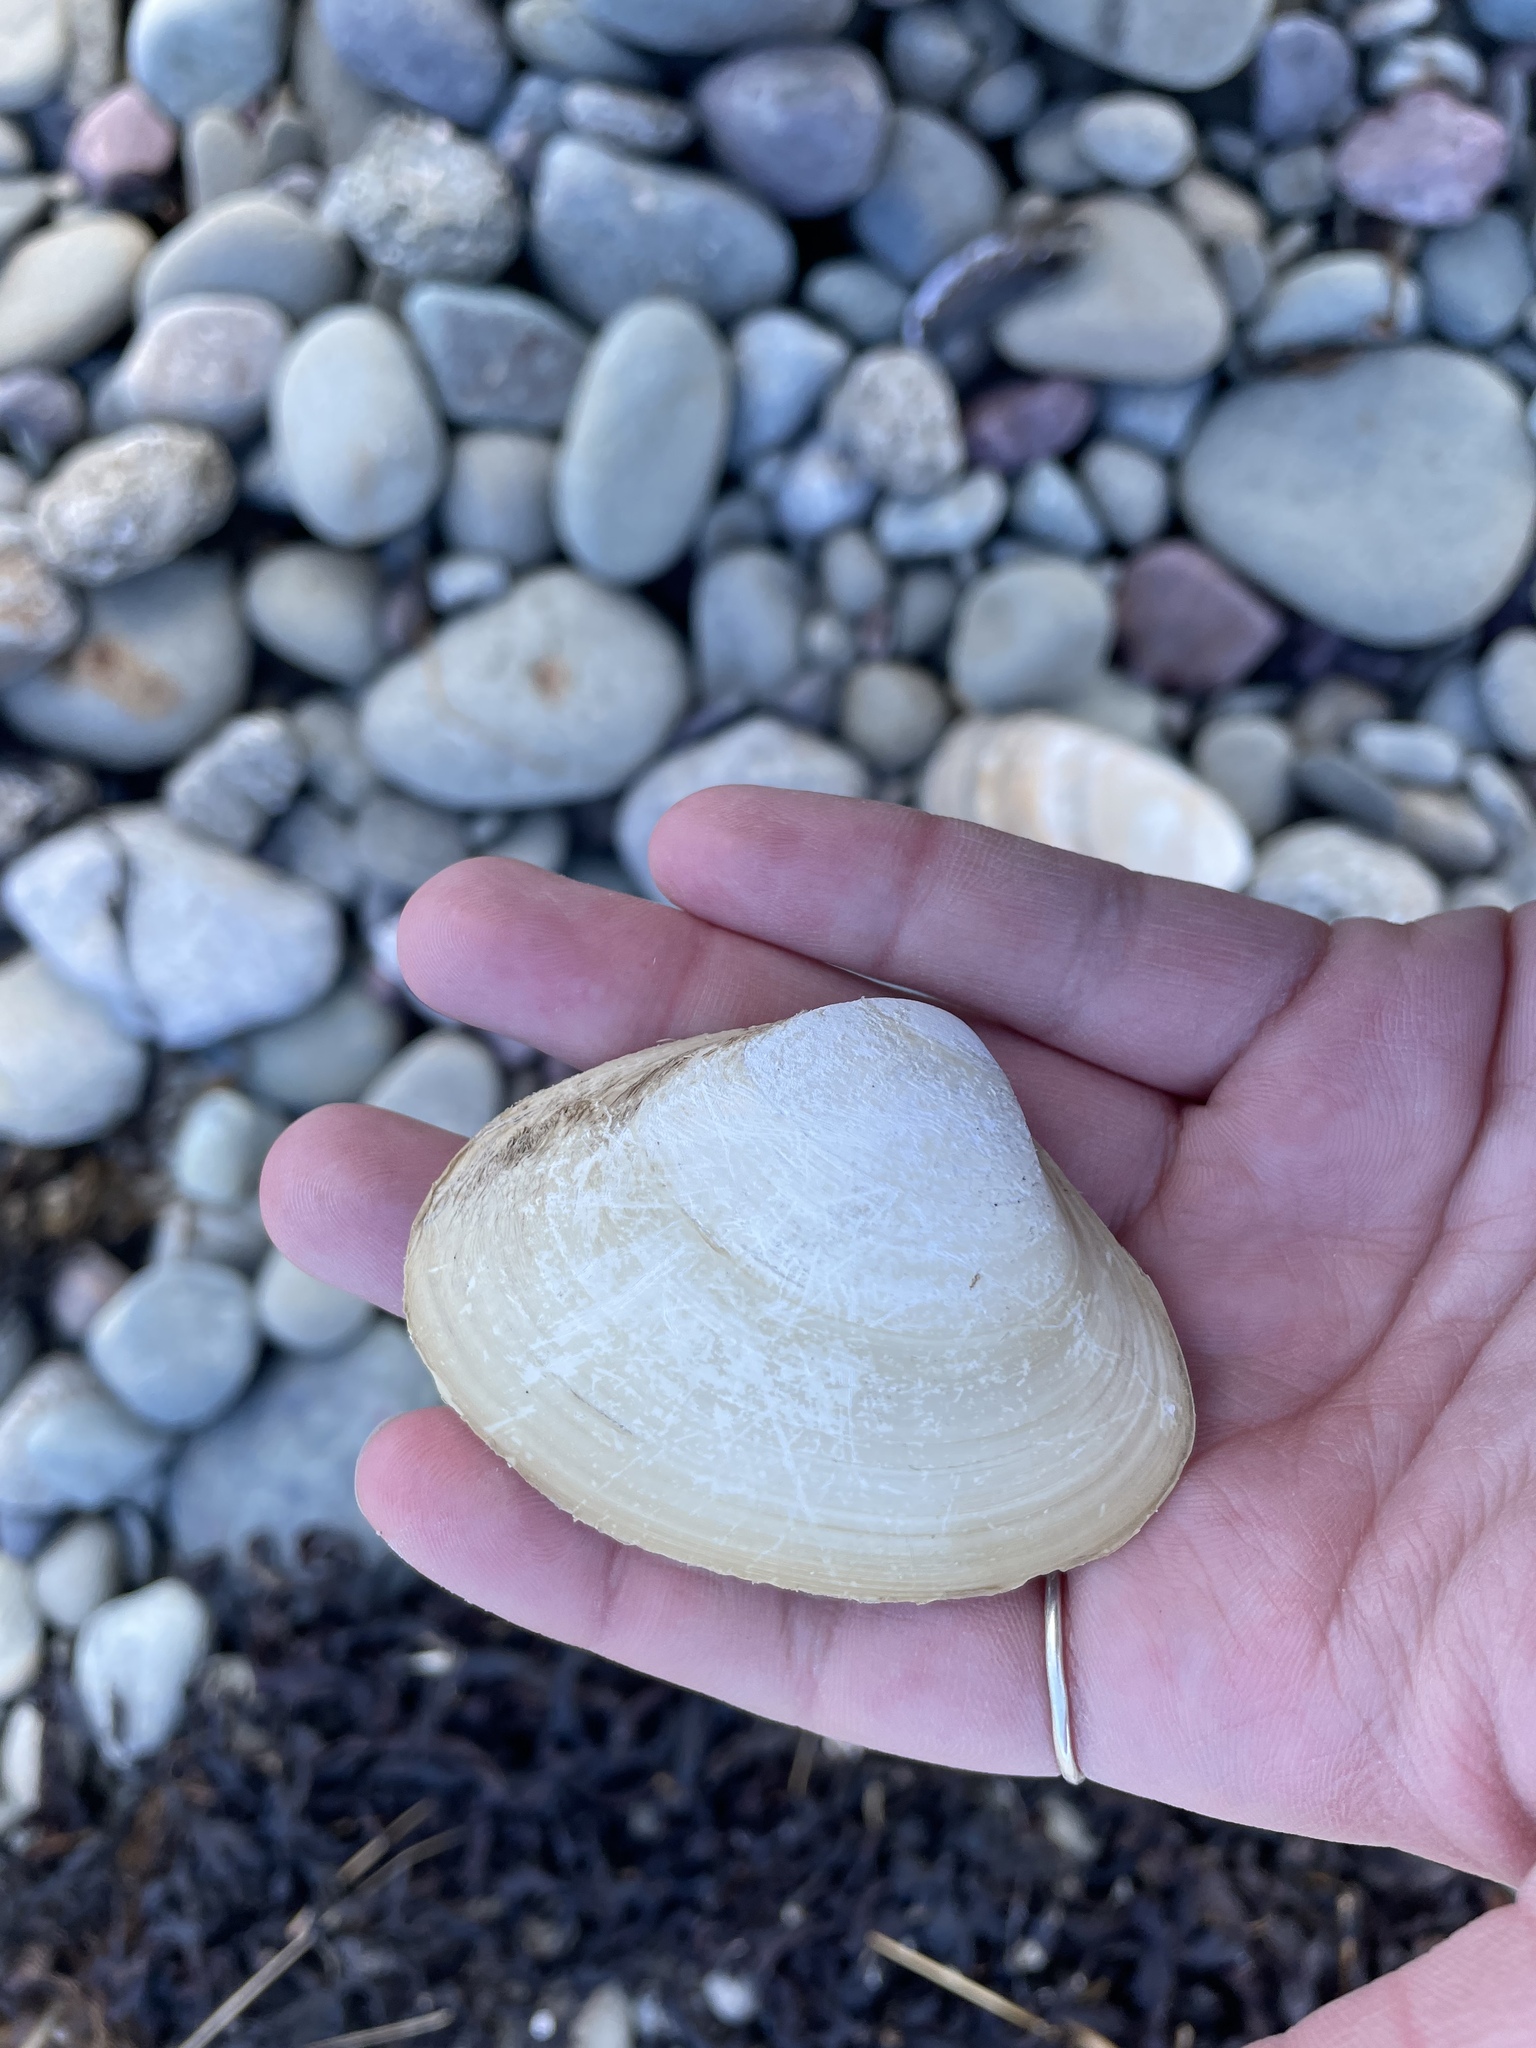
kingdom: Animalia
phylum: Mollusca
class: Bivalvia
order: Venerida
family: Mactridae
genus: Spisula
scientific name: Spisula solidissima
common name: Atlantic surf clam
